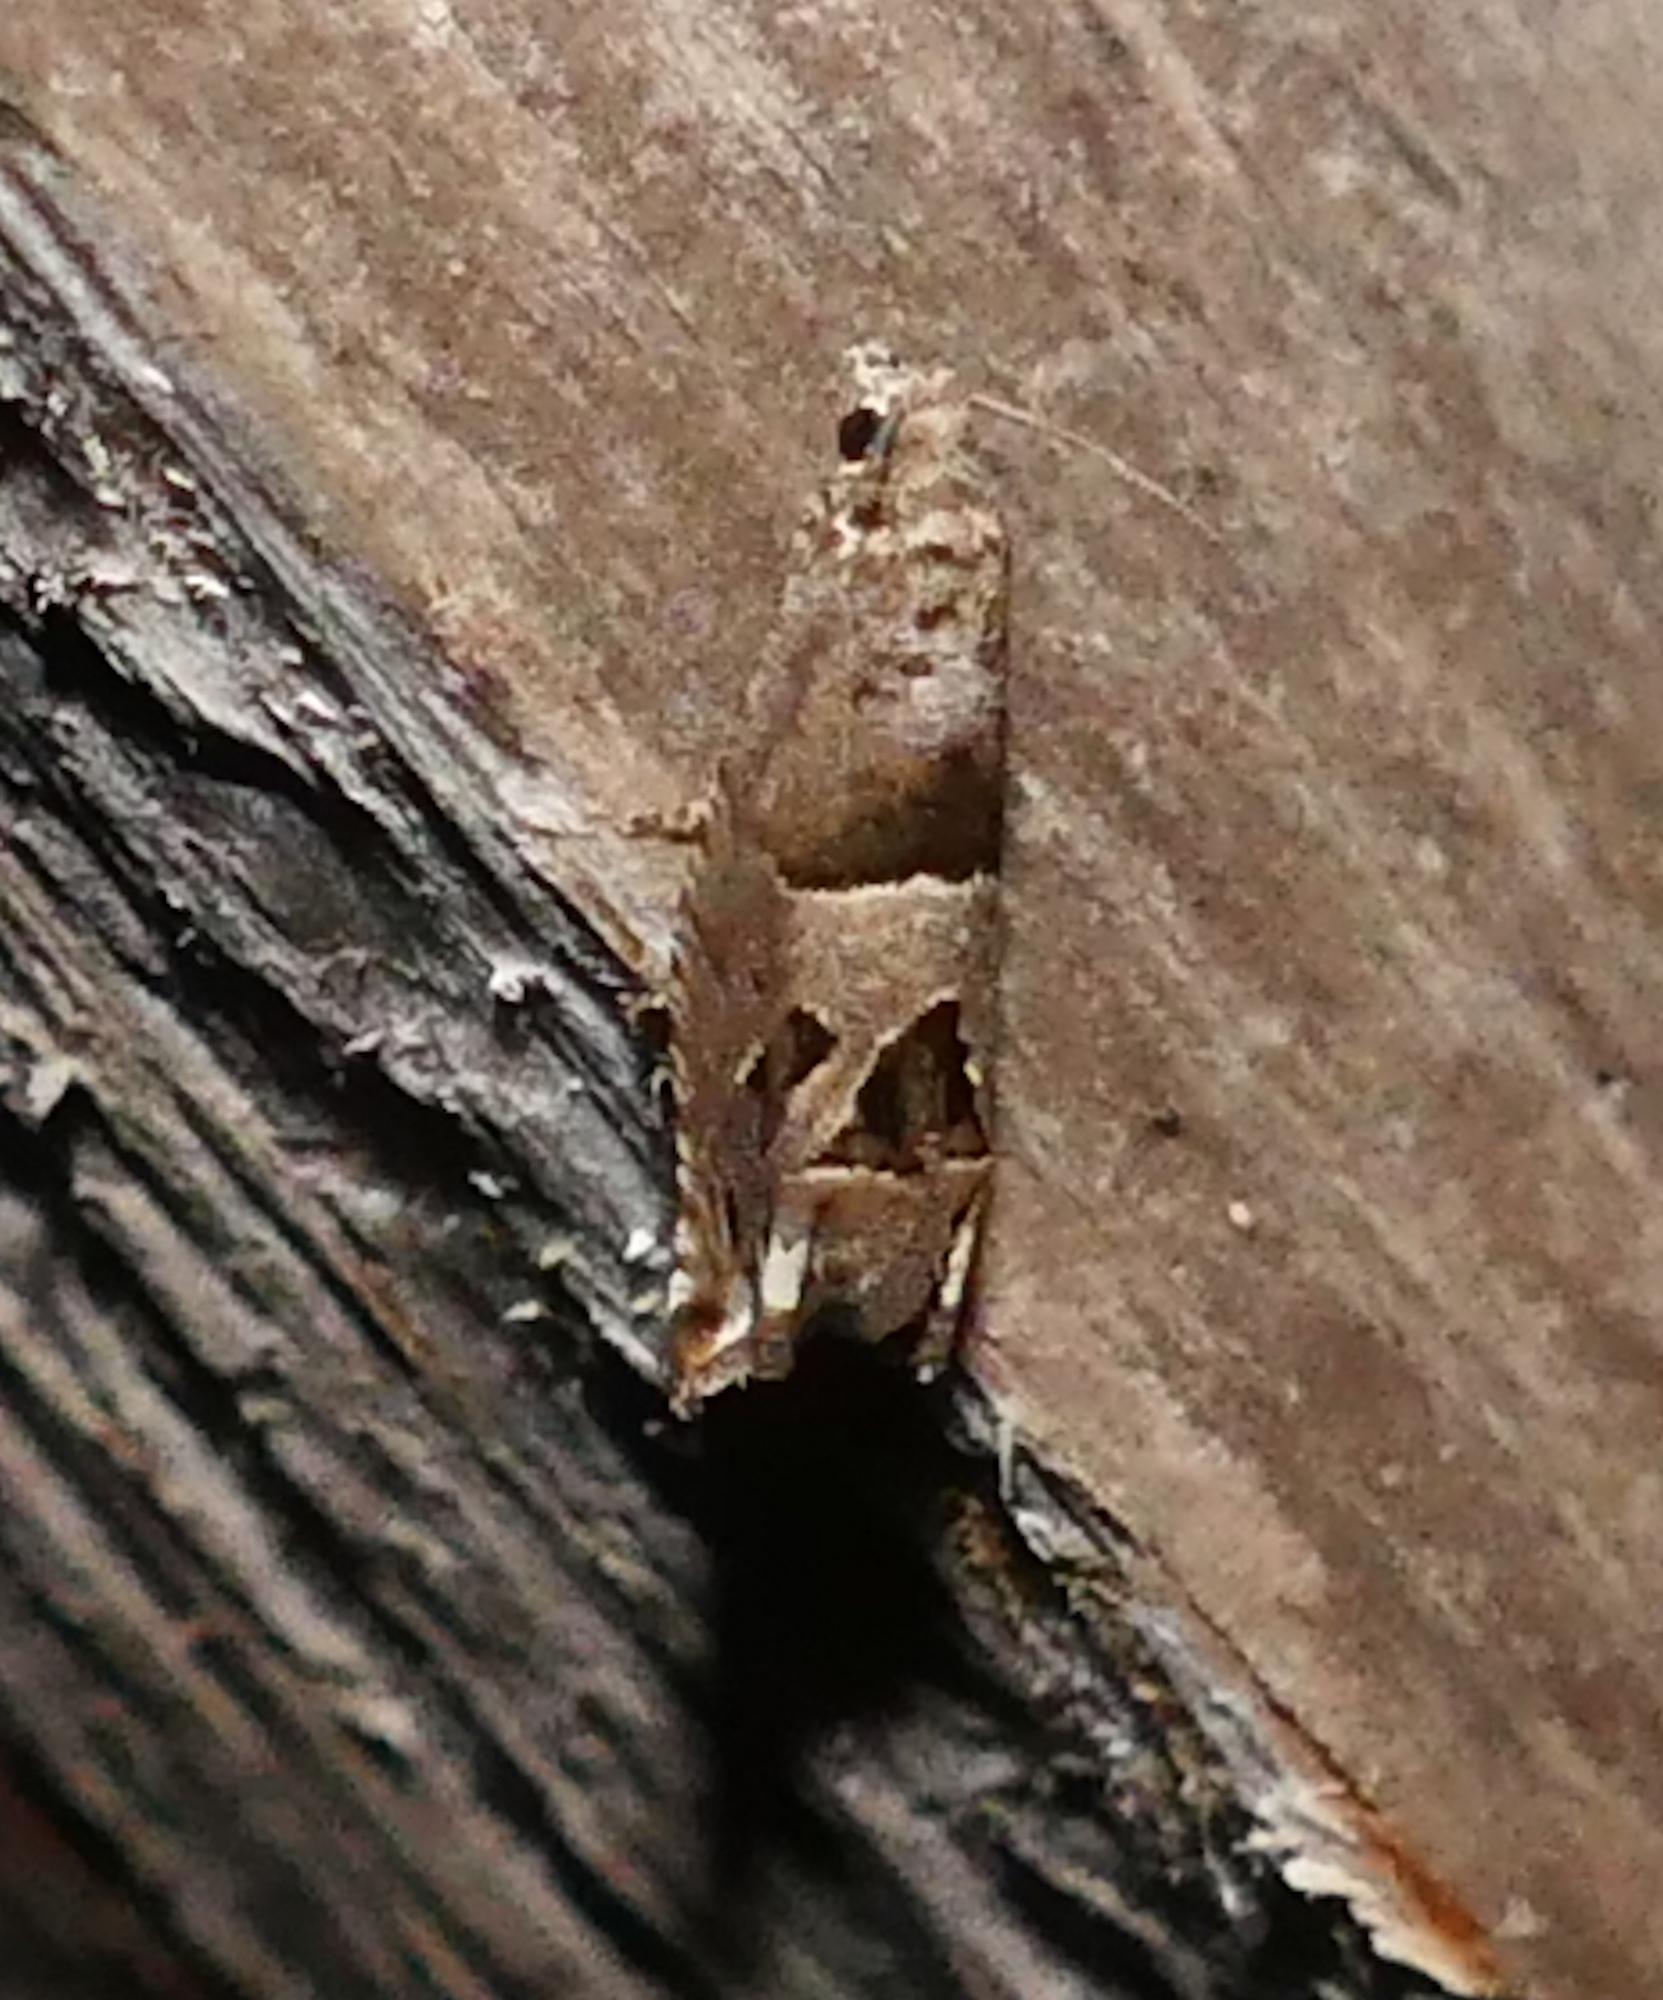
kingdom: Animalia
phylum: Arthropoda
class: Insecta
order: Lepidoptera
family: Tortricidae
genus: Sonia
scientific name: Sonia constrictana
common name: Constricted sonia moth
